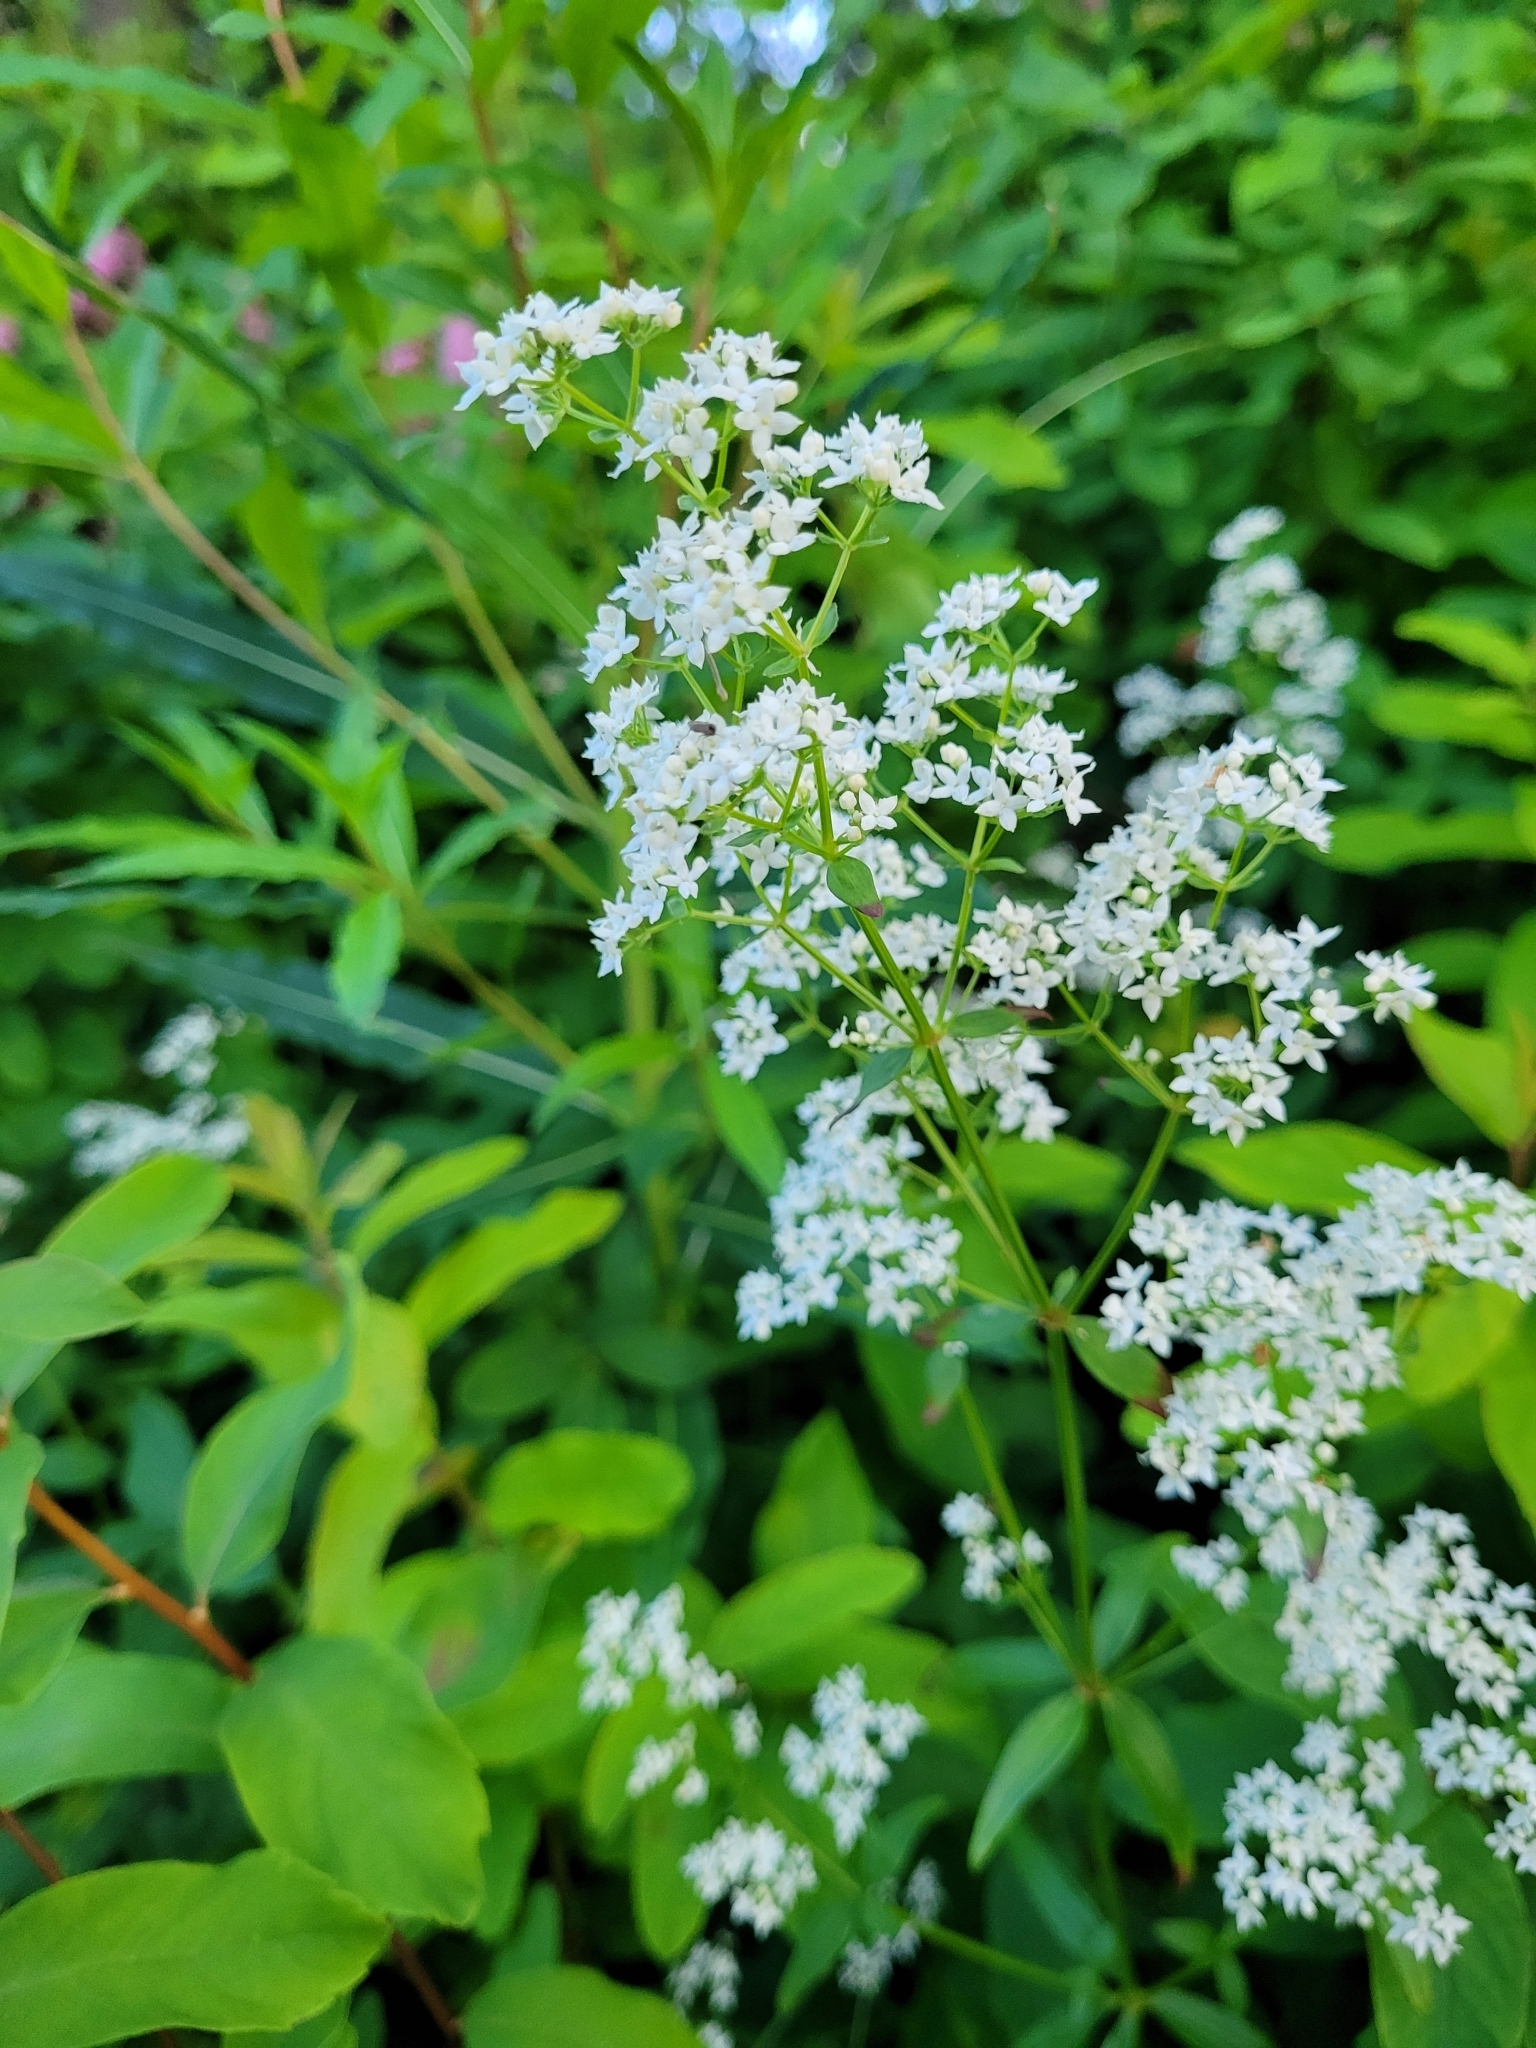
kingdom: Plantae
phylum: Tracheophyta
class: Magnoliopsida
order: Gentianales
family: Rubiaceae
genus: Galium
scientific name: Galium boreale
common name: Northern bedstraw
